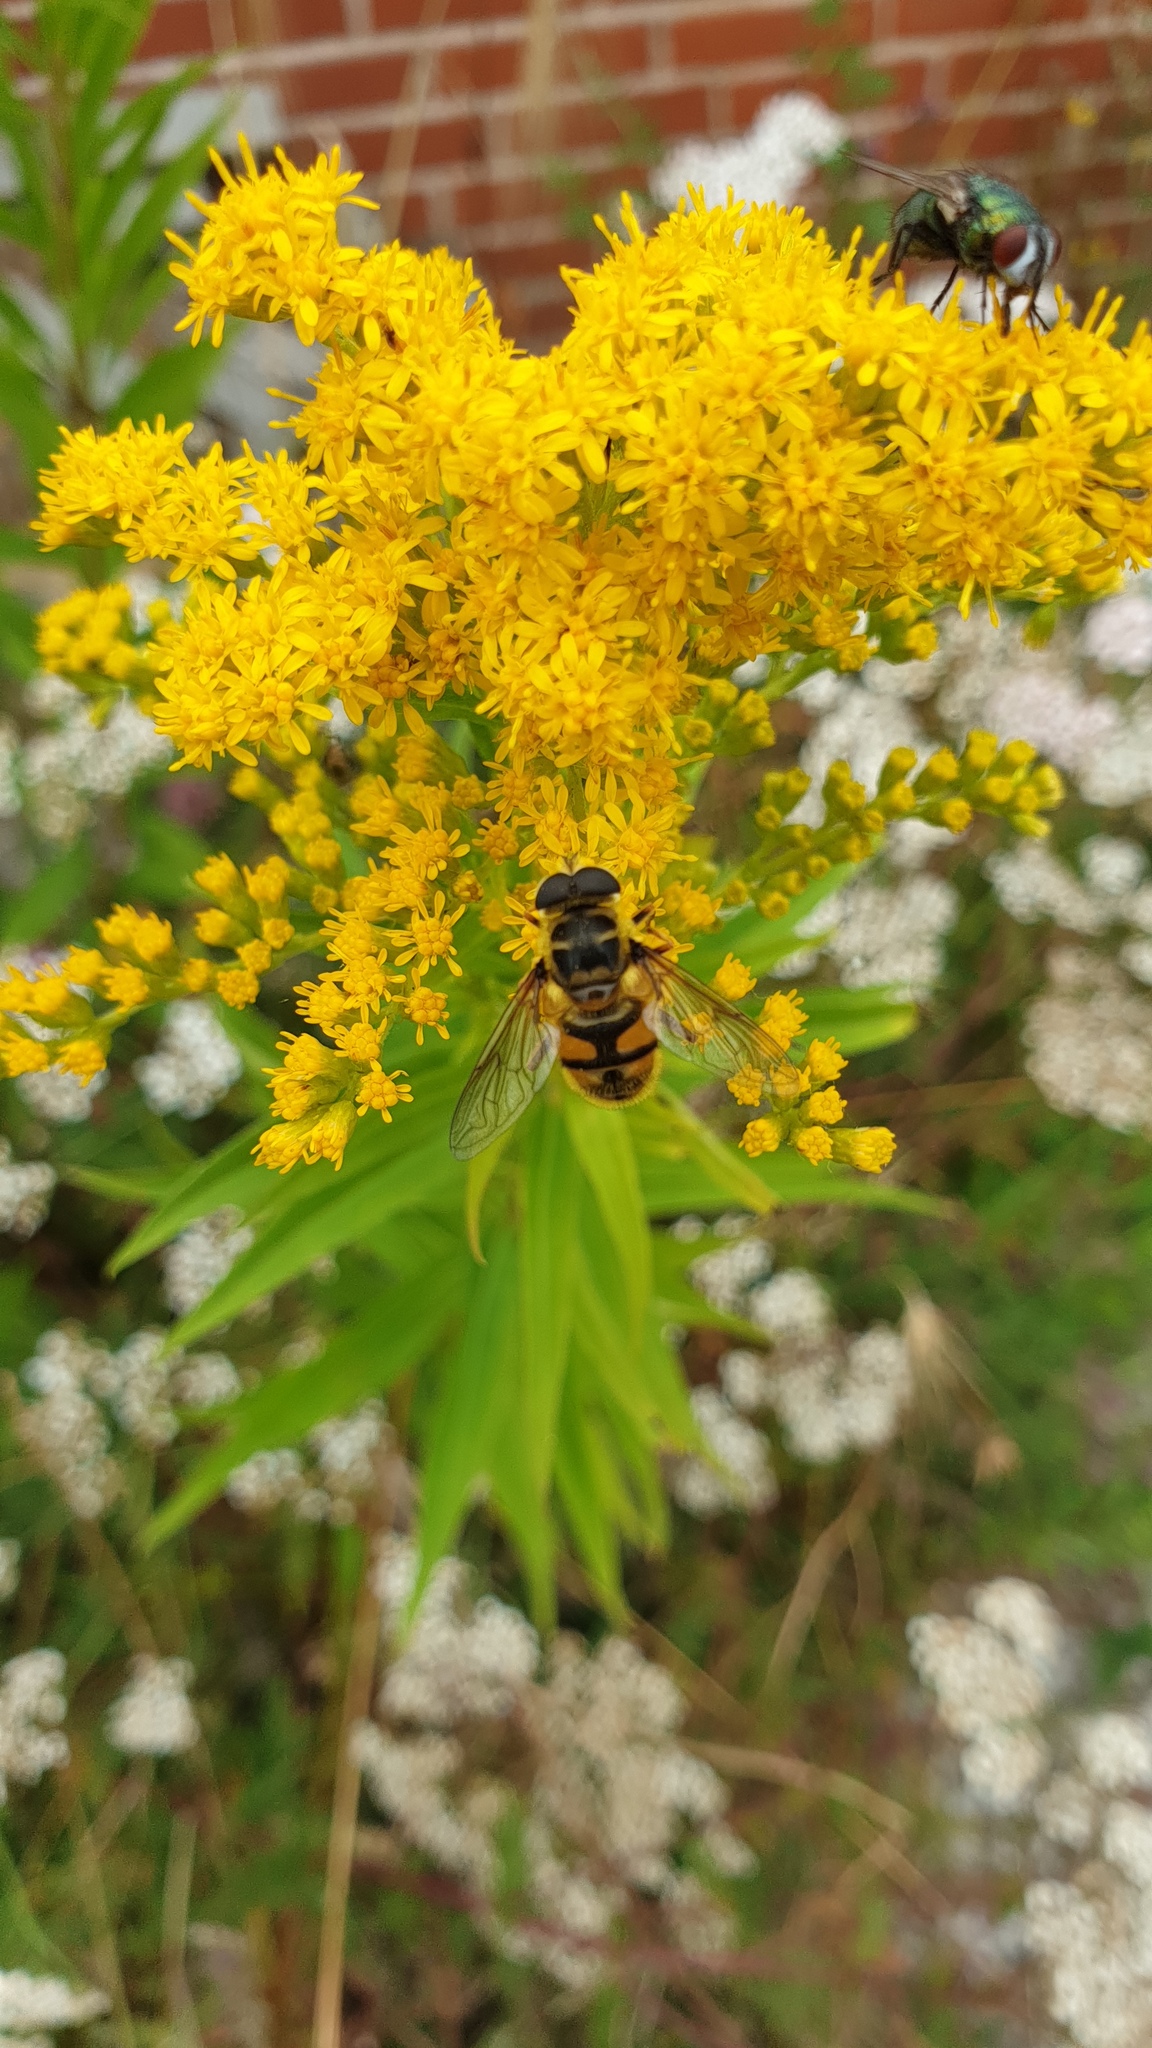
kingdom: Animalia
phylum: Arthropoda
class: Insecta
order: Diptera
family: Syrphidae
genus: Myathropa
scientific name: Myathropa florea
